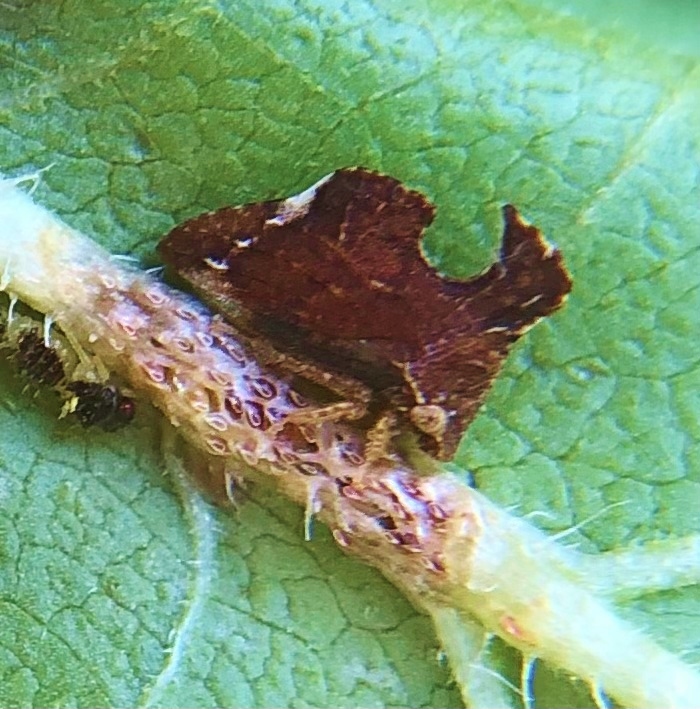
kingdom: Animalia
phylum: Arthropoda
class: Insecta
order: Hemiptera
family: Membracidae
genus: Entylia
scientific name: Entylia carinata
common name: Keeled treehopper
